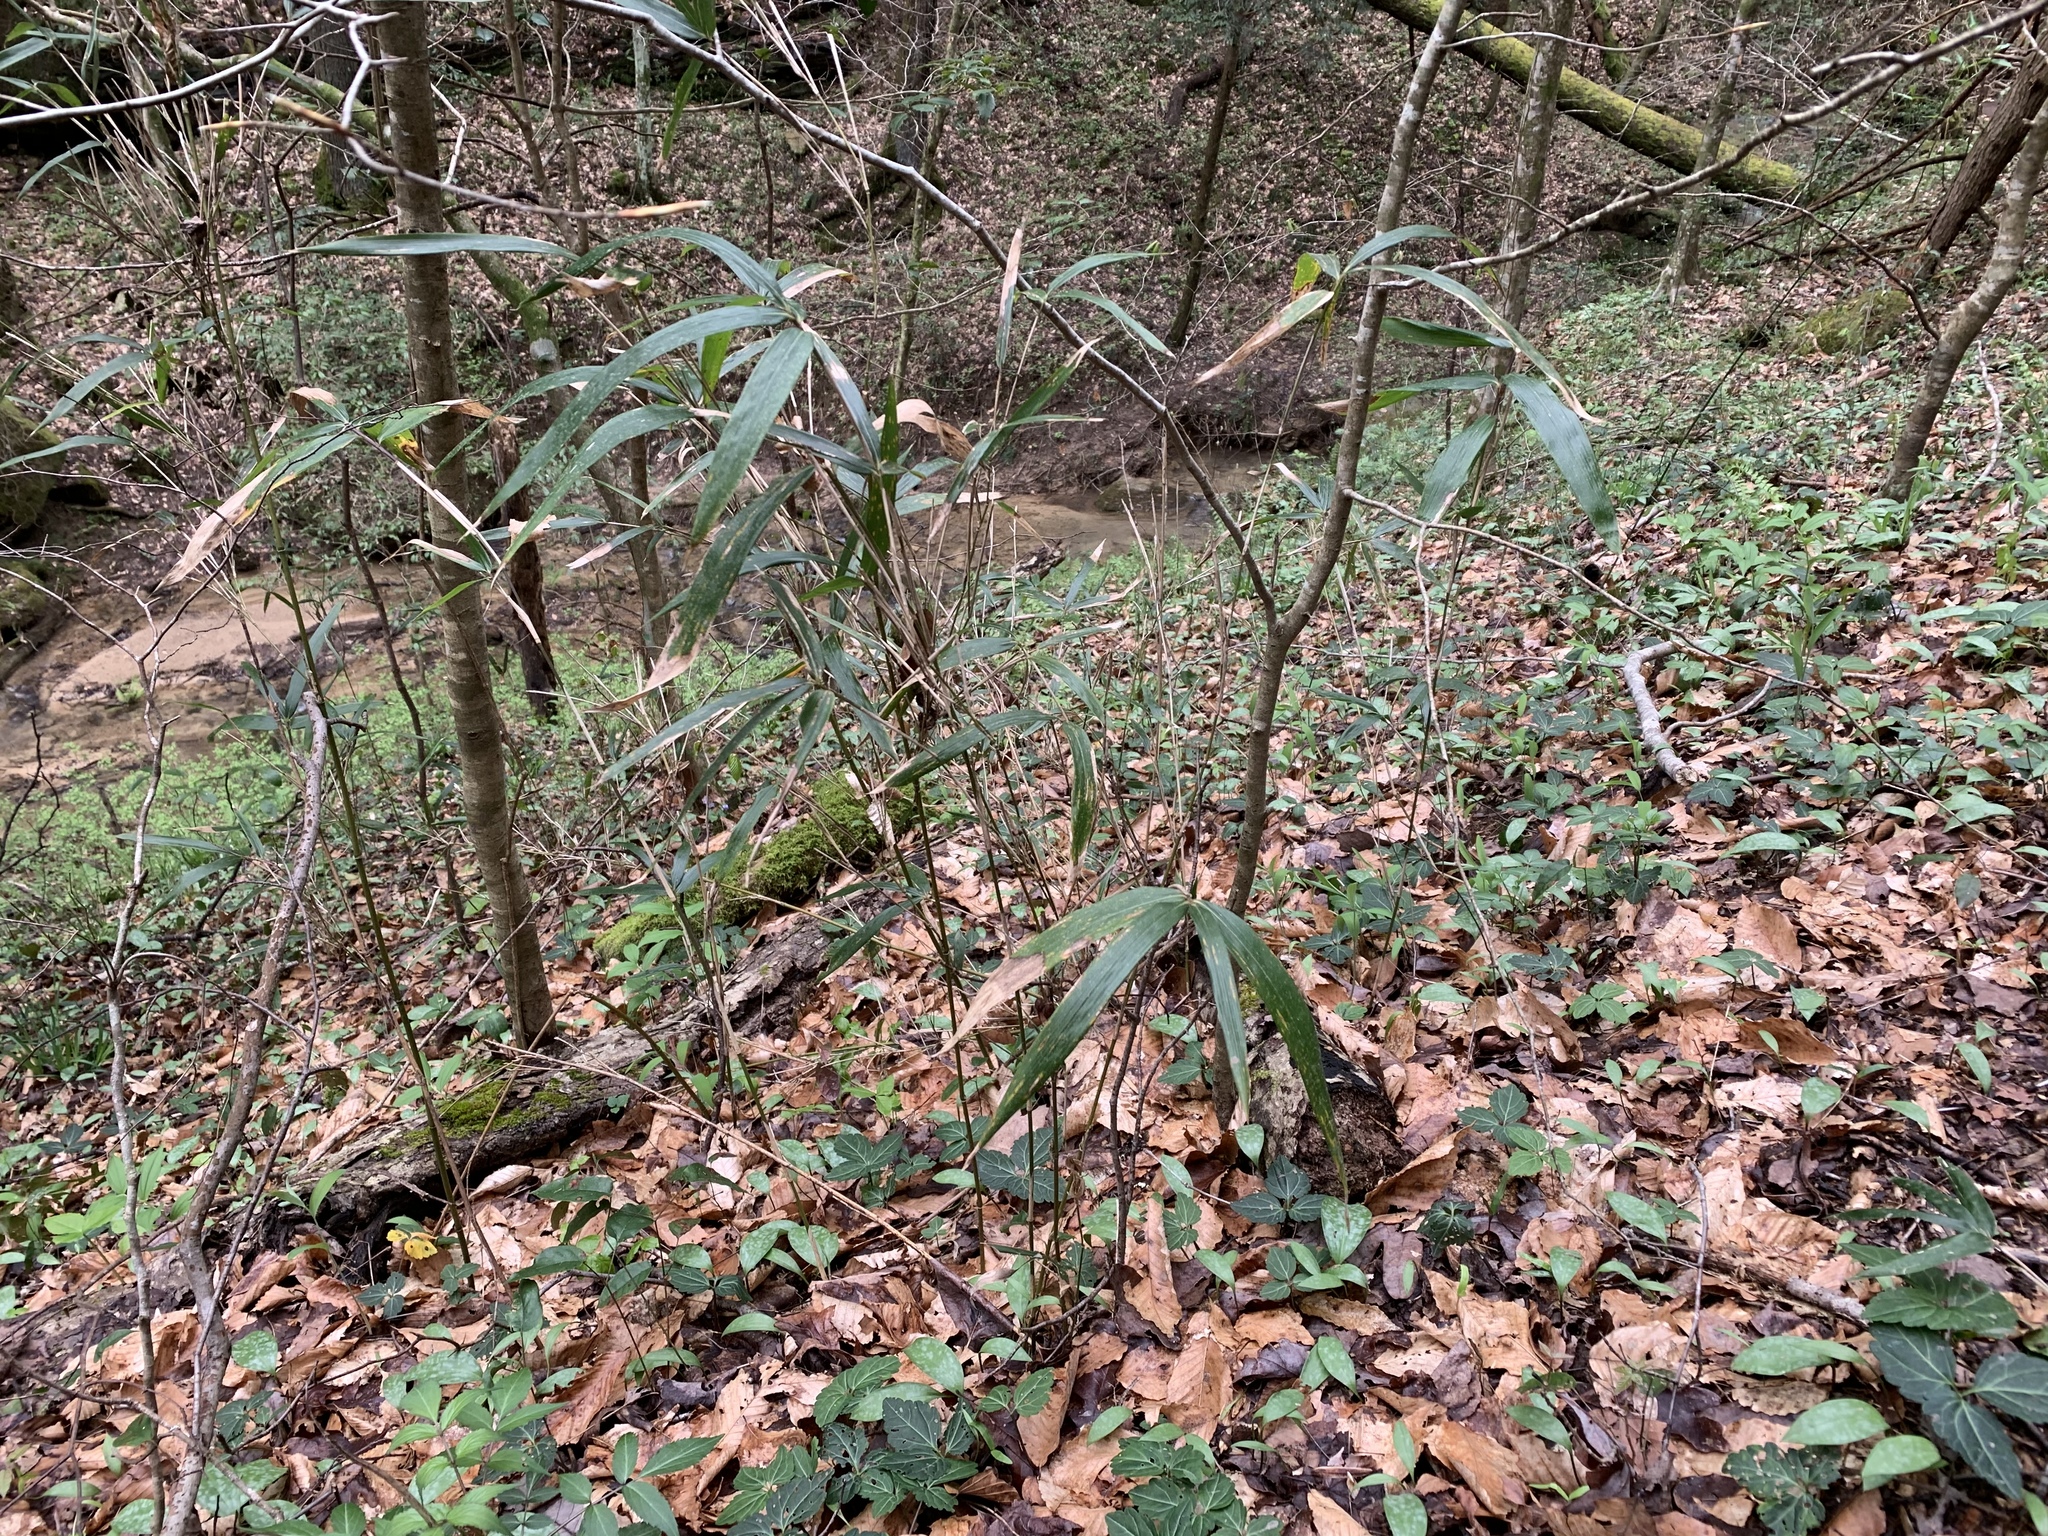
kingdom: Plantae
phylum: Tracheophyta
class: Liliopsida
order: Poales
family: Poaceae
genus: Arundinaria
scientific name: Arundinaria gigantea
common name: Giant cane
